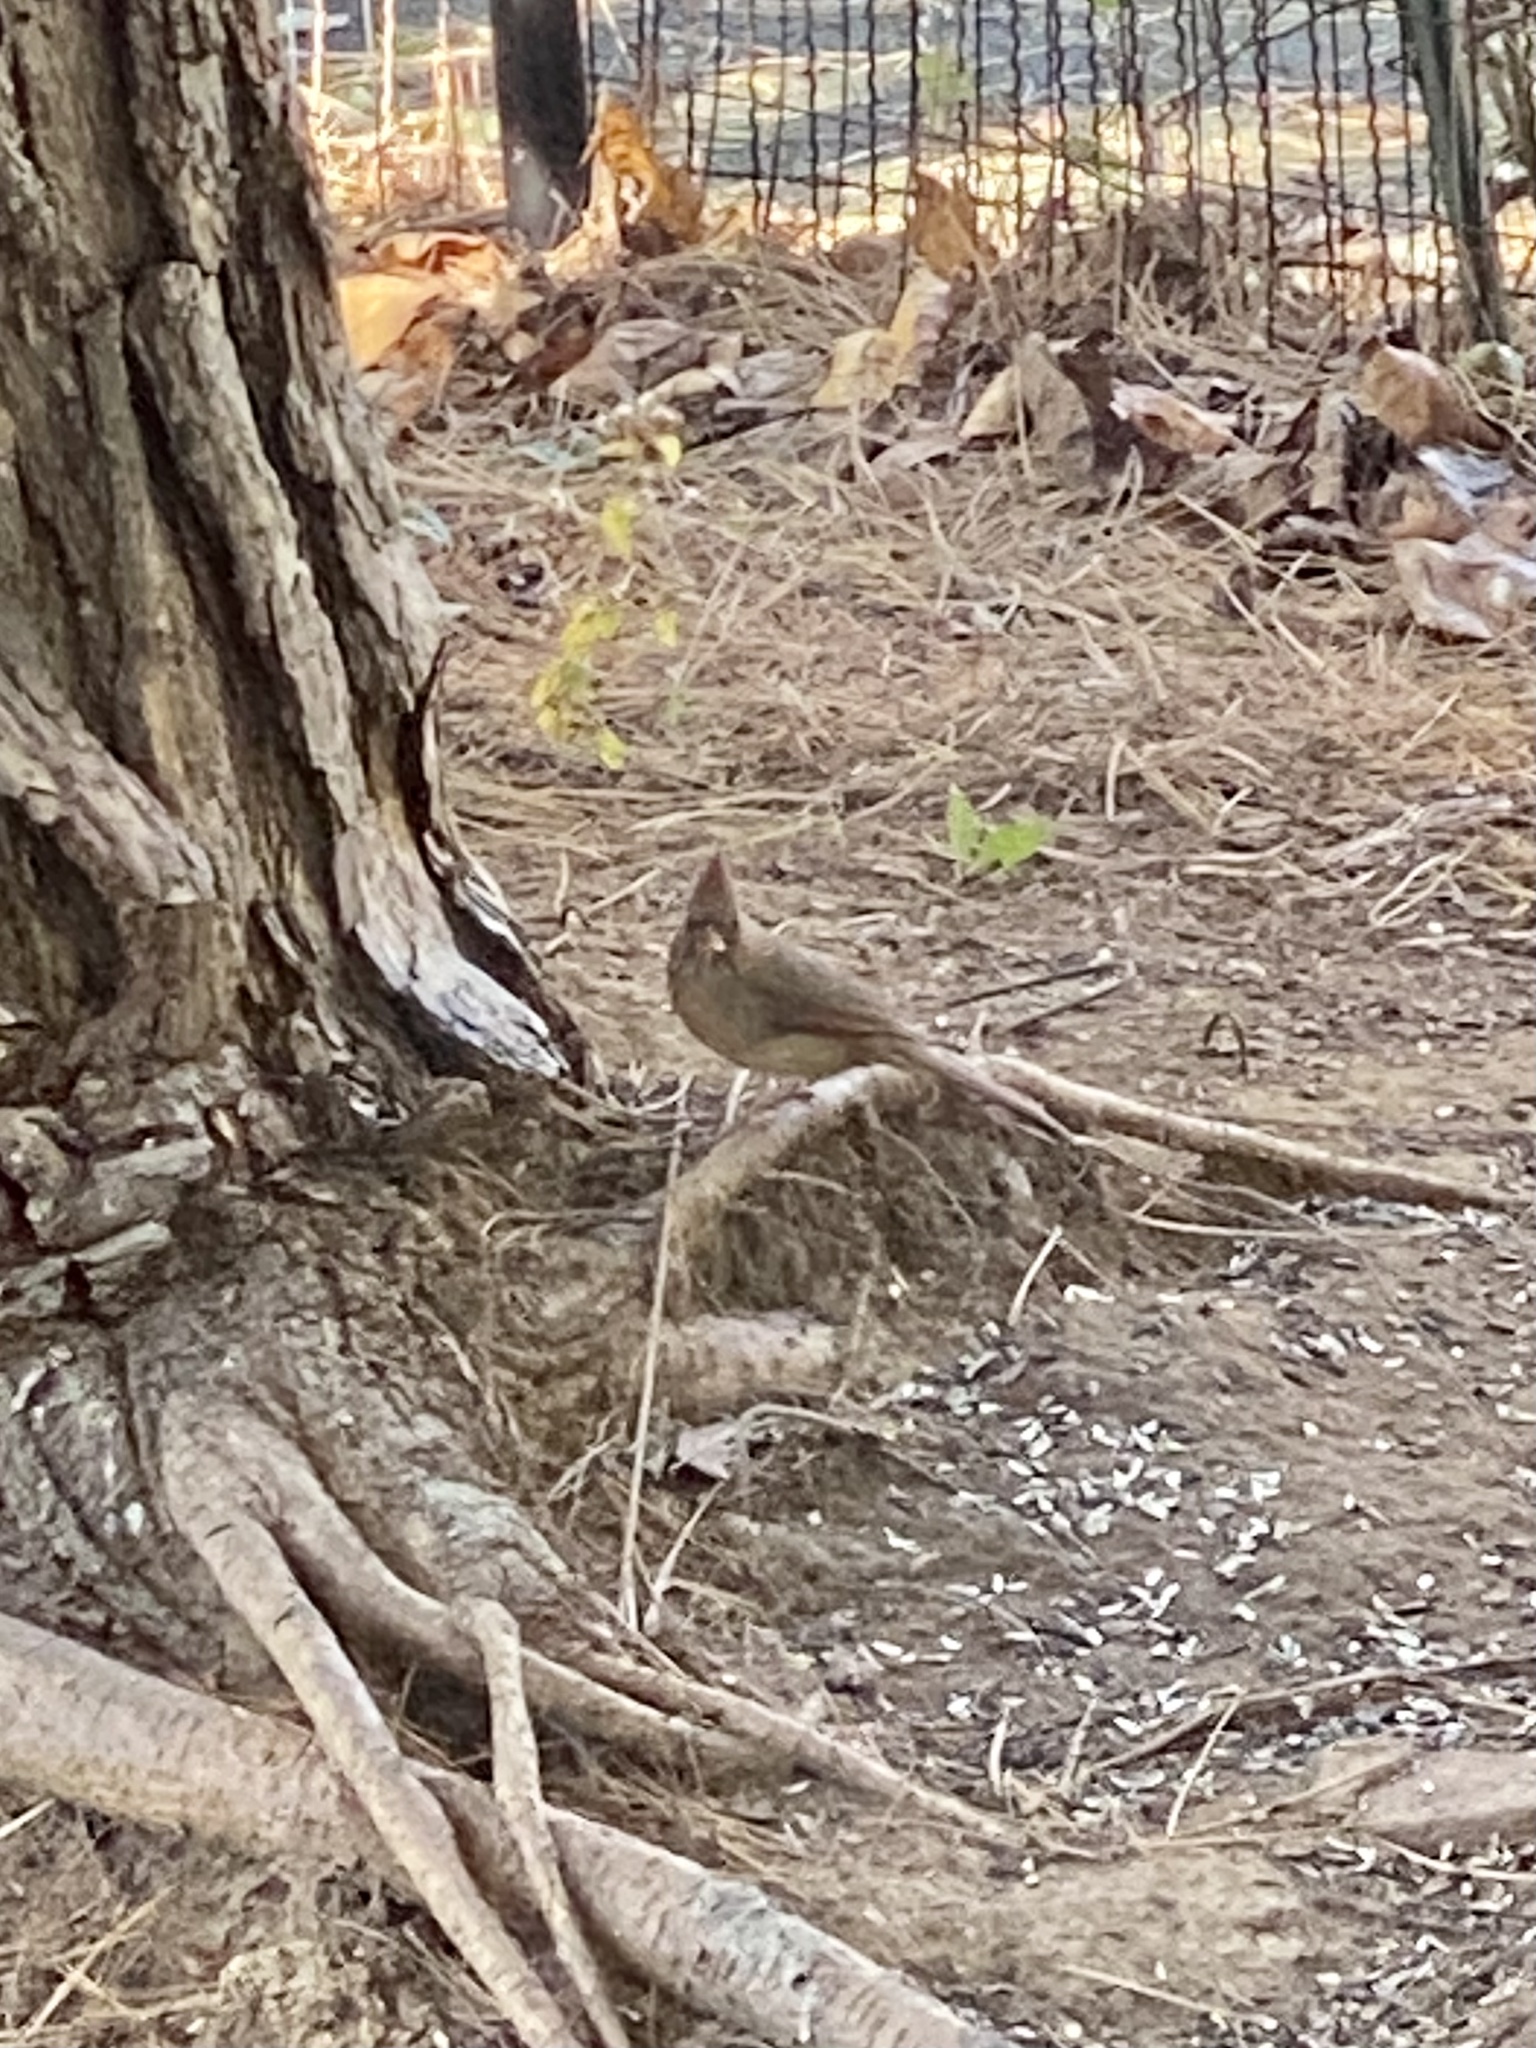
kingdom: Animalia
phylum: Chordata
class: Aves
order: Passeriformes
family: Cardinalidae
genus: Cardinalis
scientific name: Cardinalis cardinalis
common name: Northern cardinal
